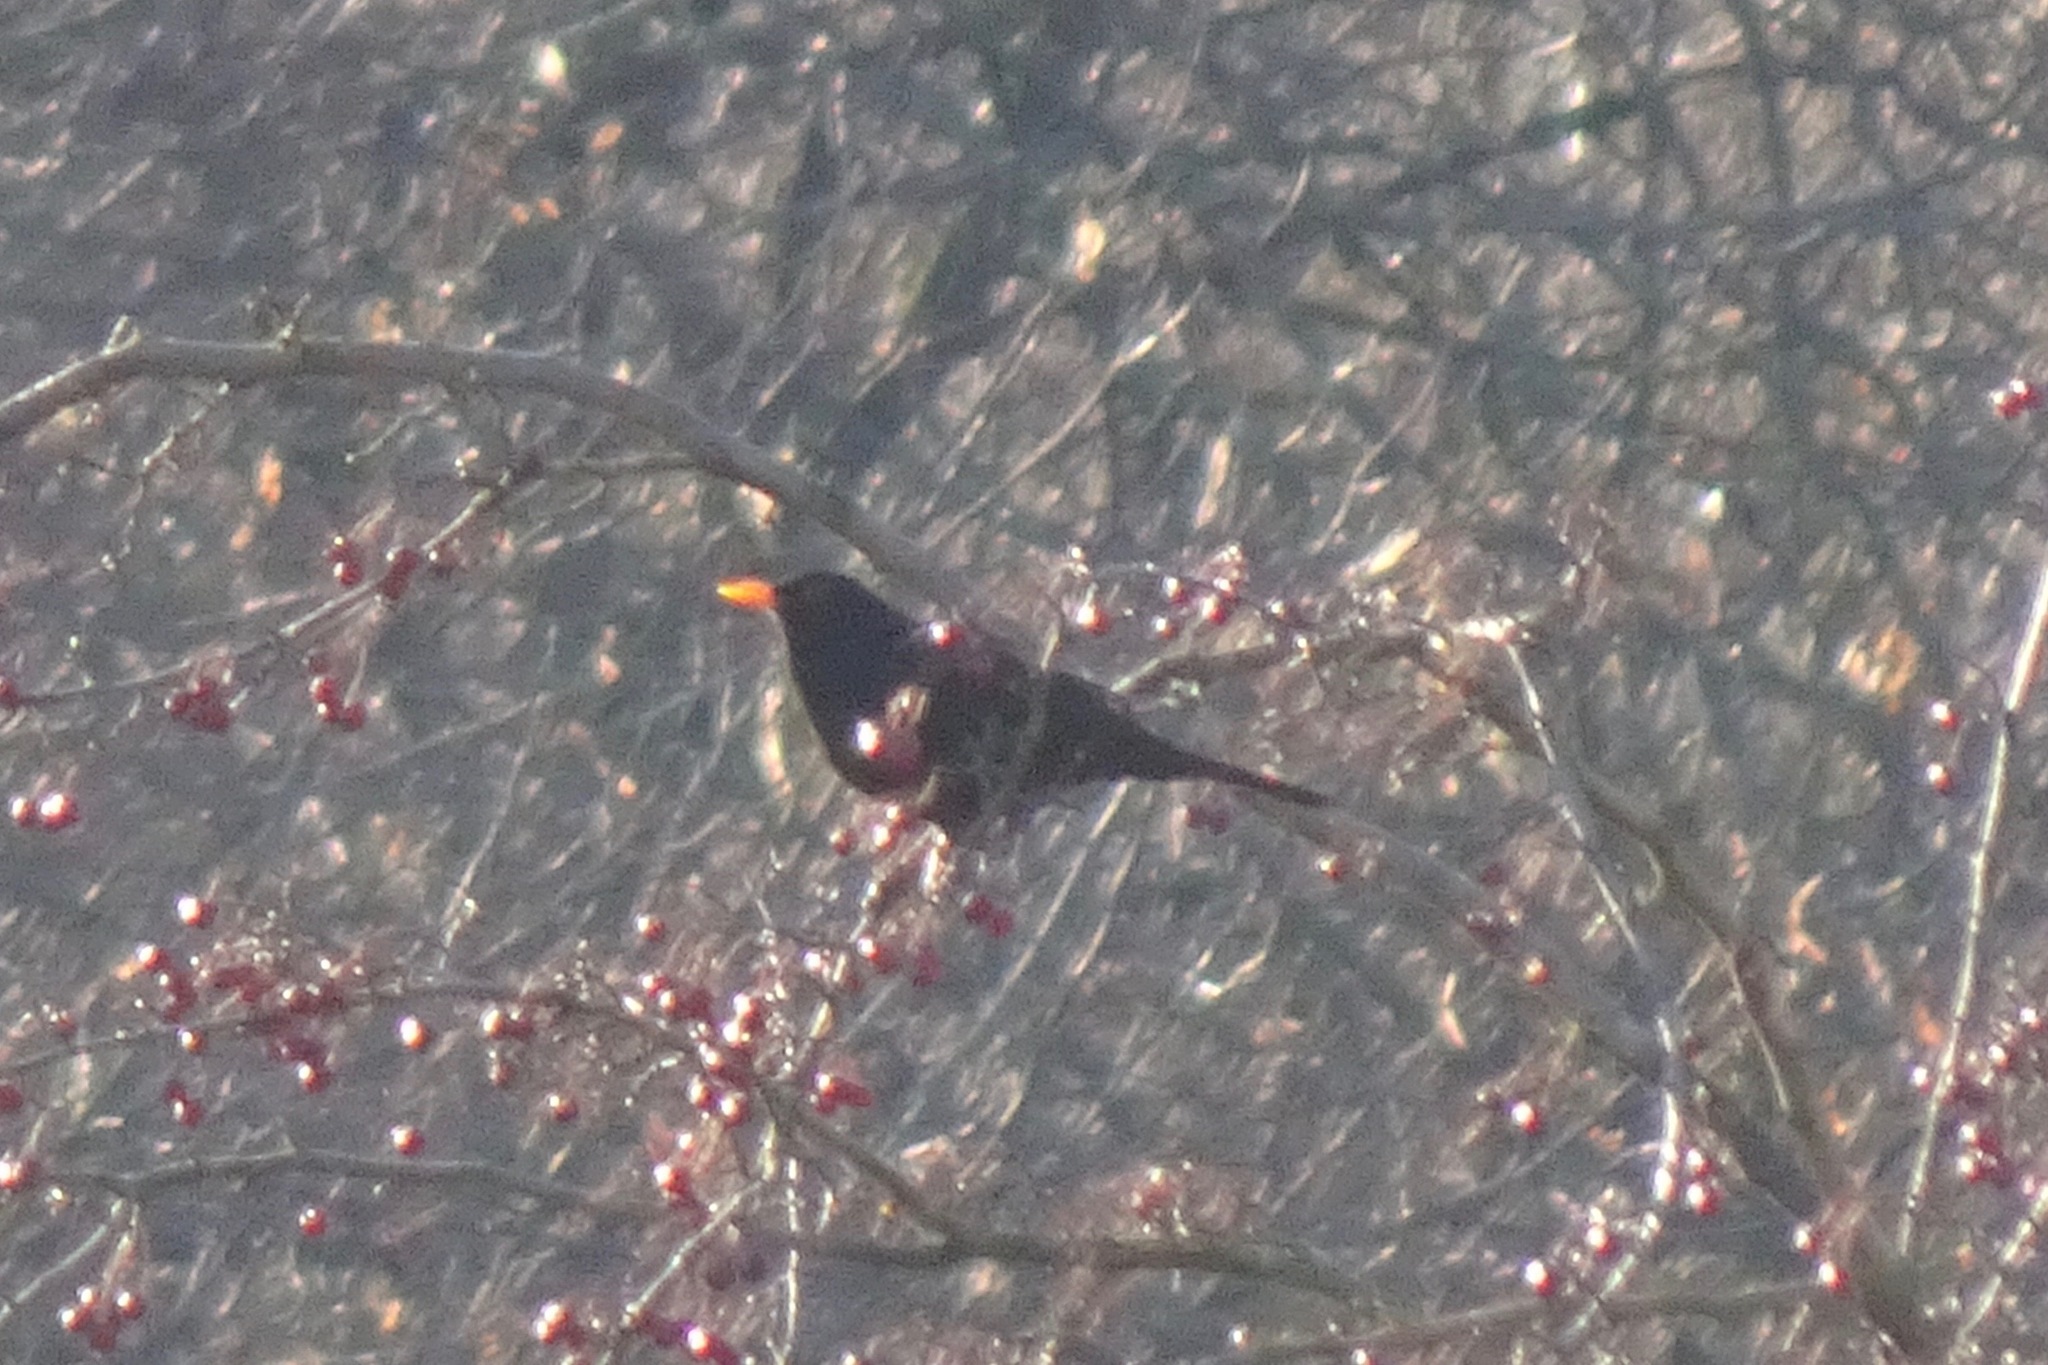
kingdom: Animalia
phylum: Chordata
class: Aves
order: Passeriformes
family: Turdidae
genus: Turdus
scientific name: Turdus merula
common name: Common blackbird
